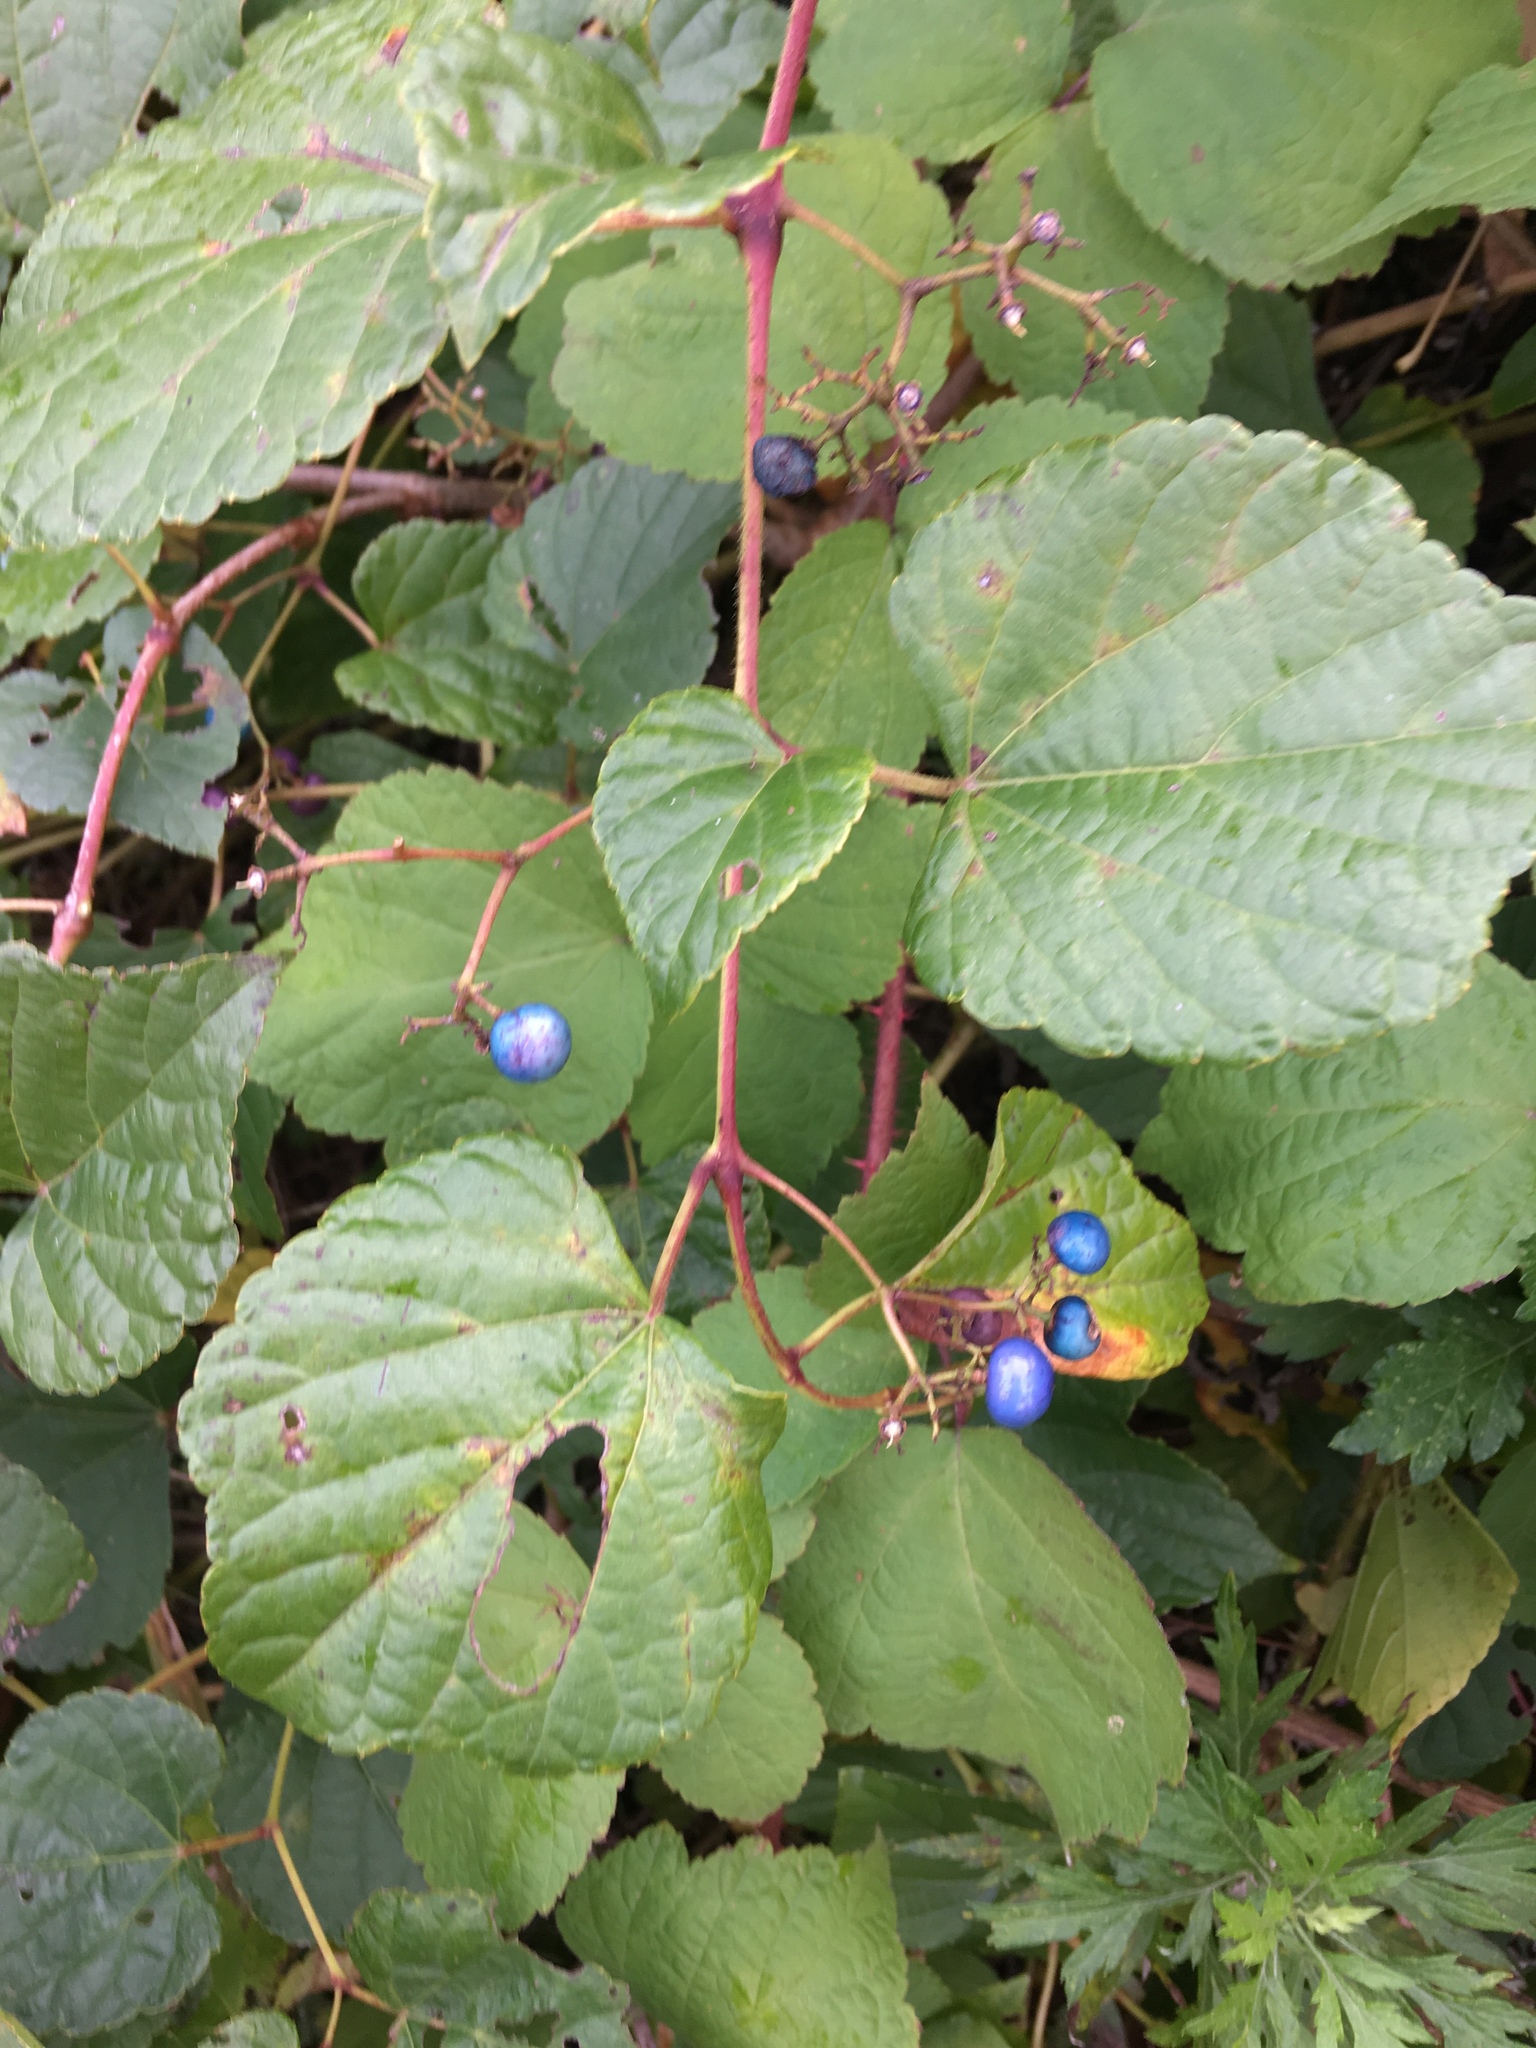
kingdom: Plantae
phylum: Tracheophyta
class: Magnoliopsida
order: Vitales
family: Vitaceae
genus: Ampelopsis
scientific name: Ampelopsis glandulosa
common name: Amur peppervine
